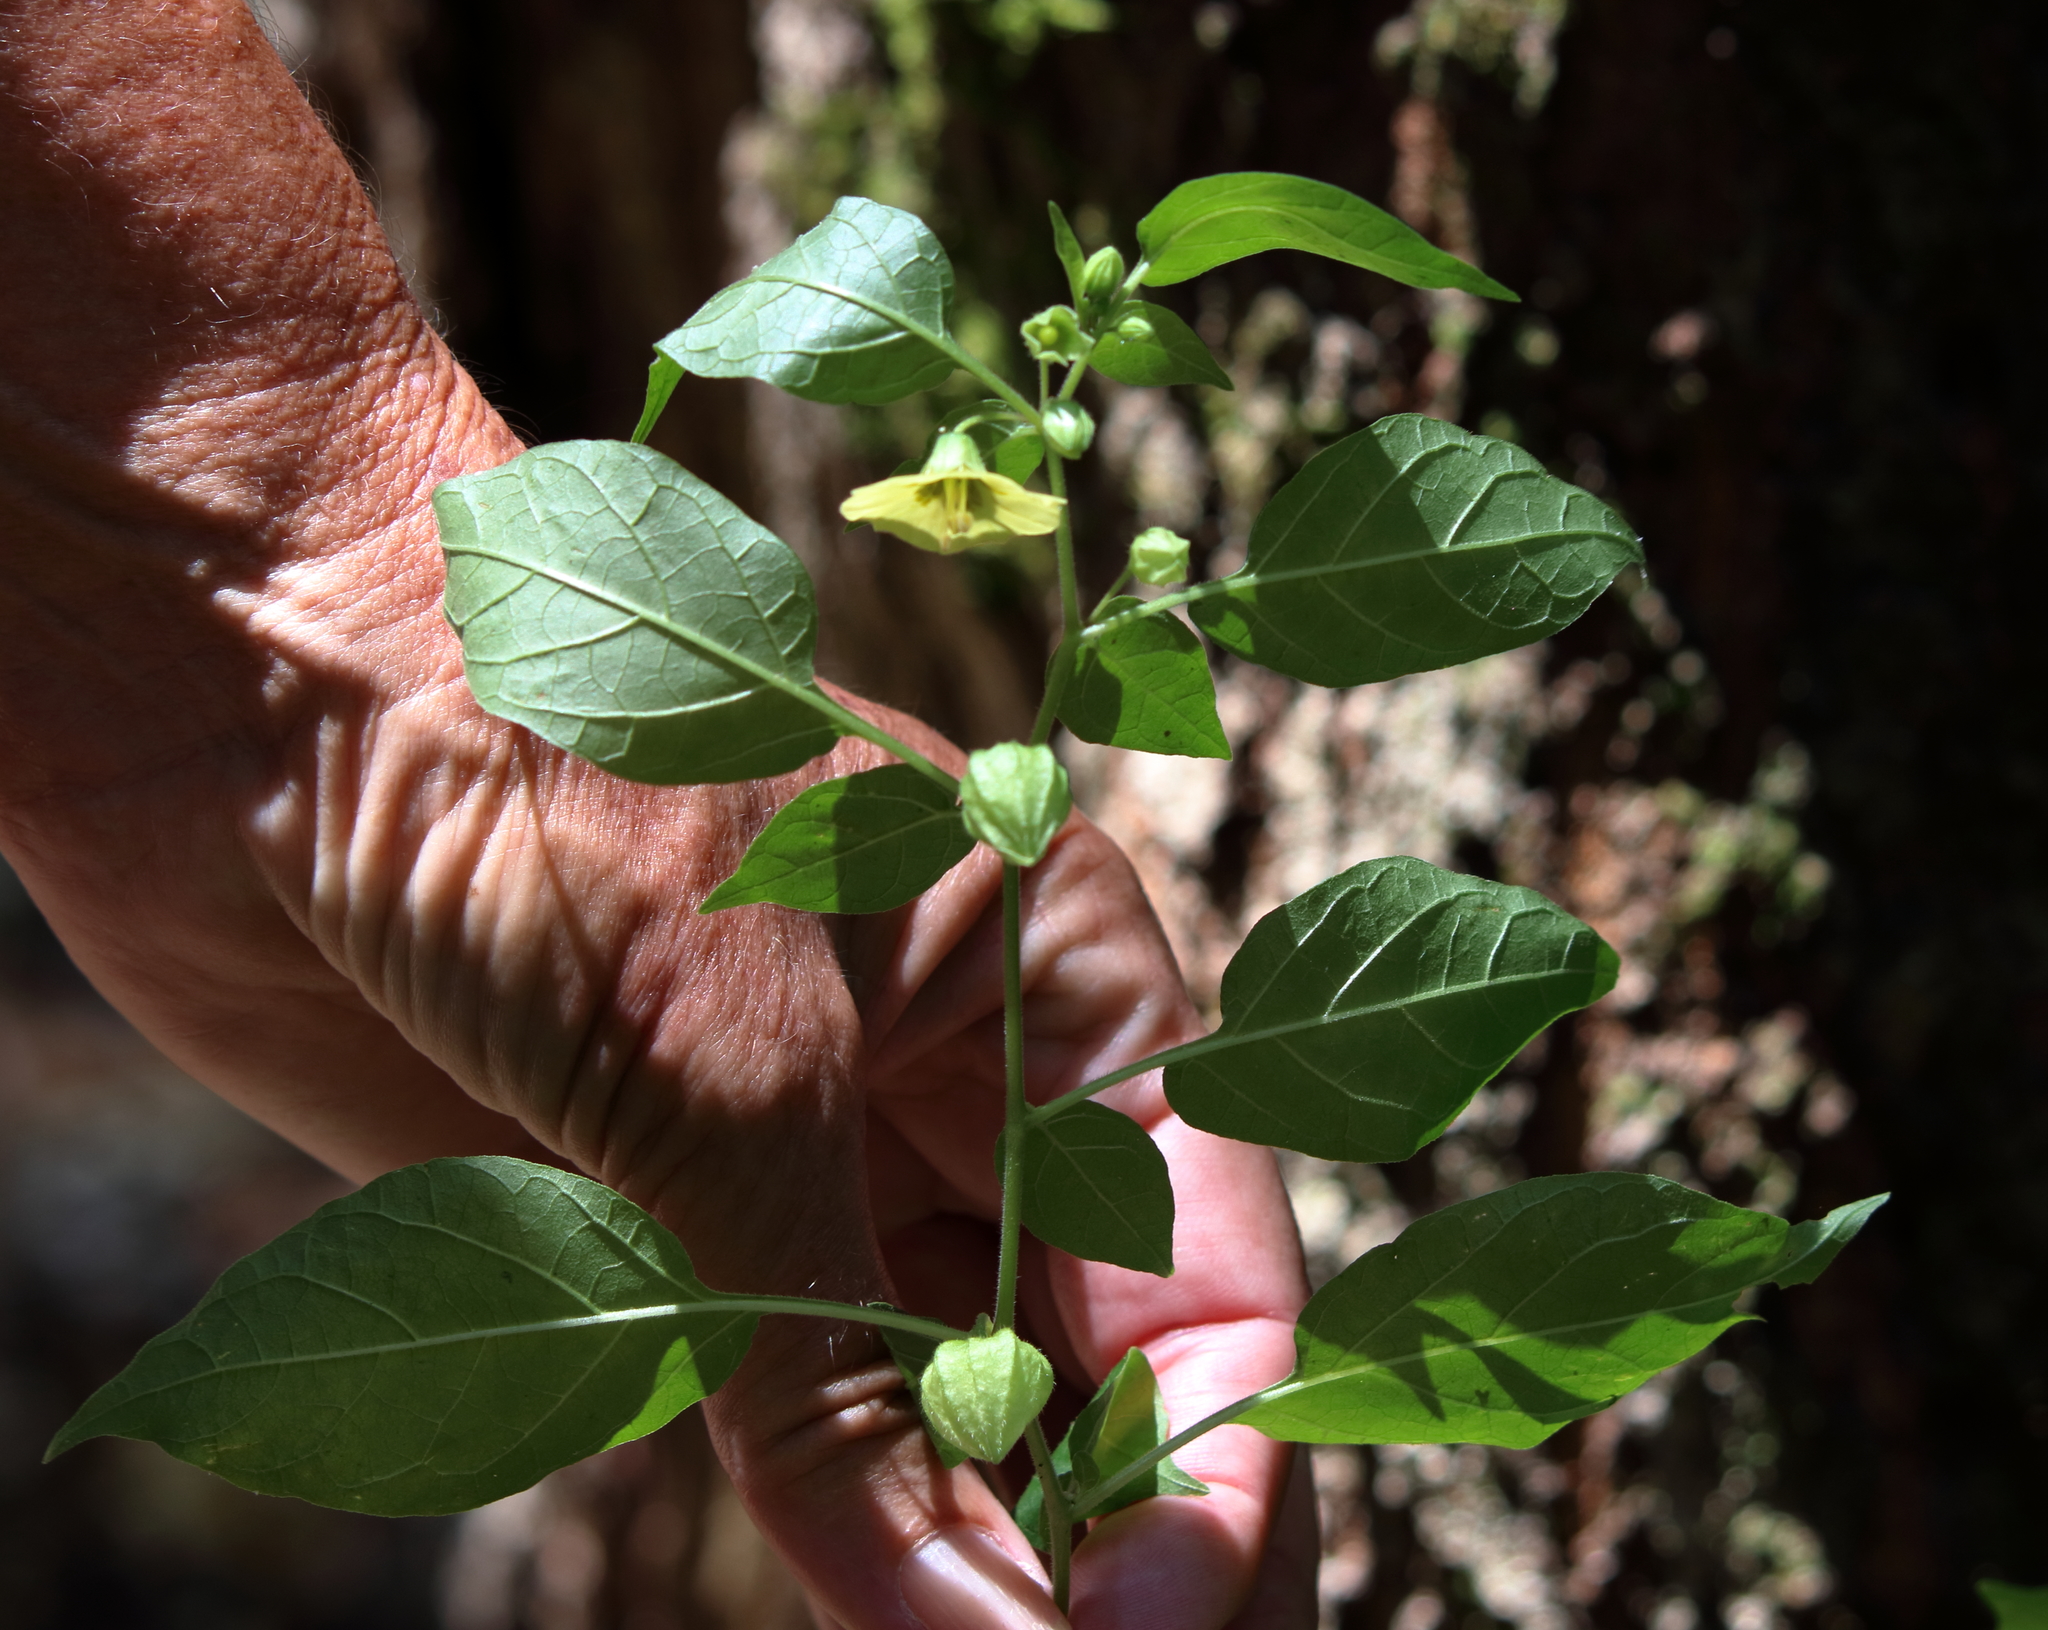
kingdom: Plantae
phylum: Tracheophyta
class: Magnoliopsida
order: Solanales
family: Solanaceae
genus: Calliphysalis
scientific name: Calliphysalis carpenteri
